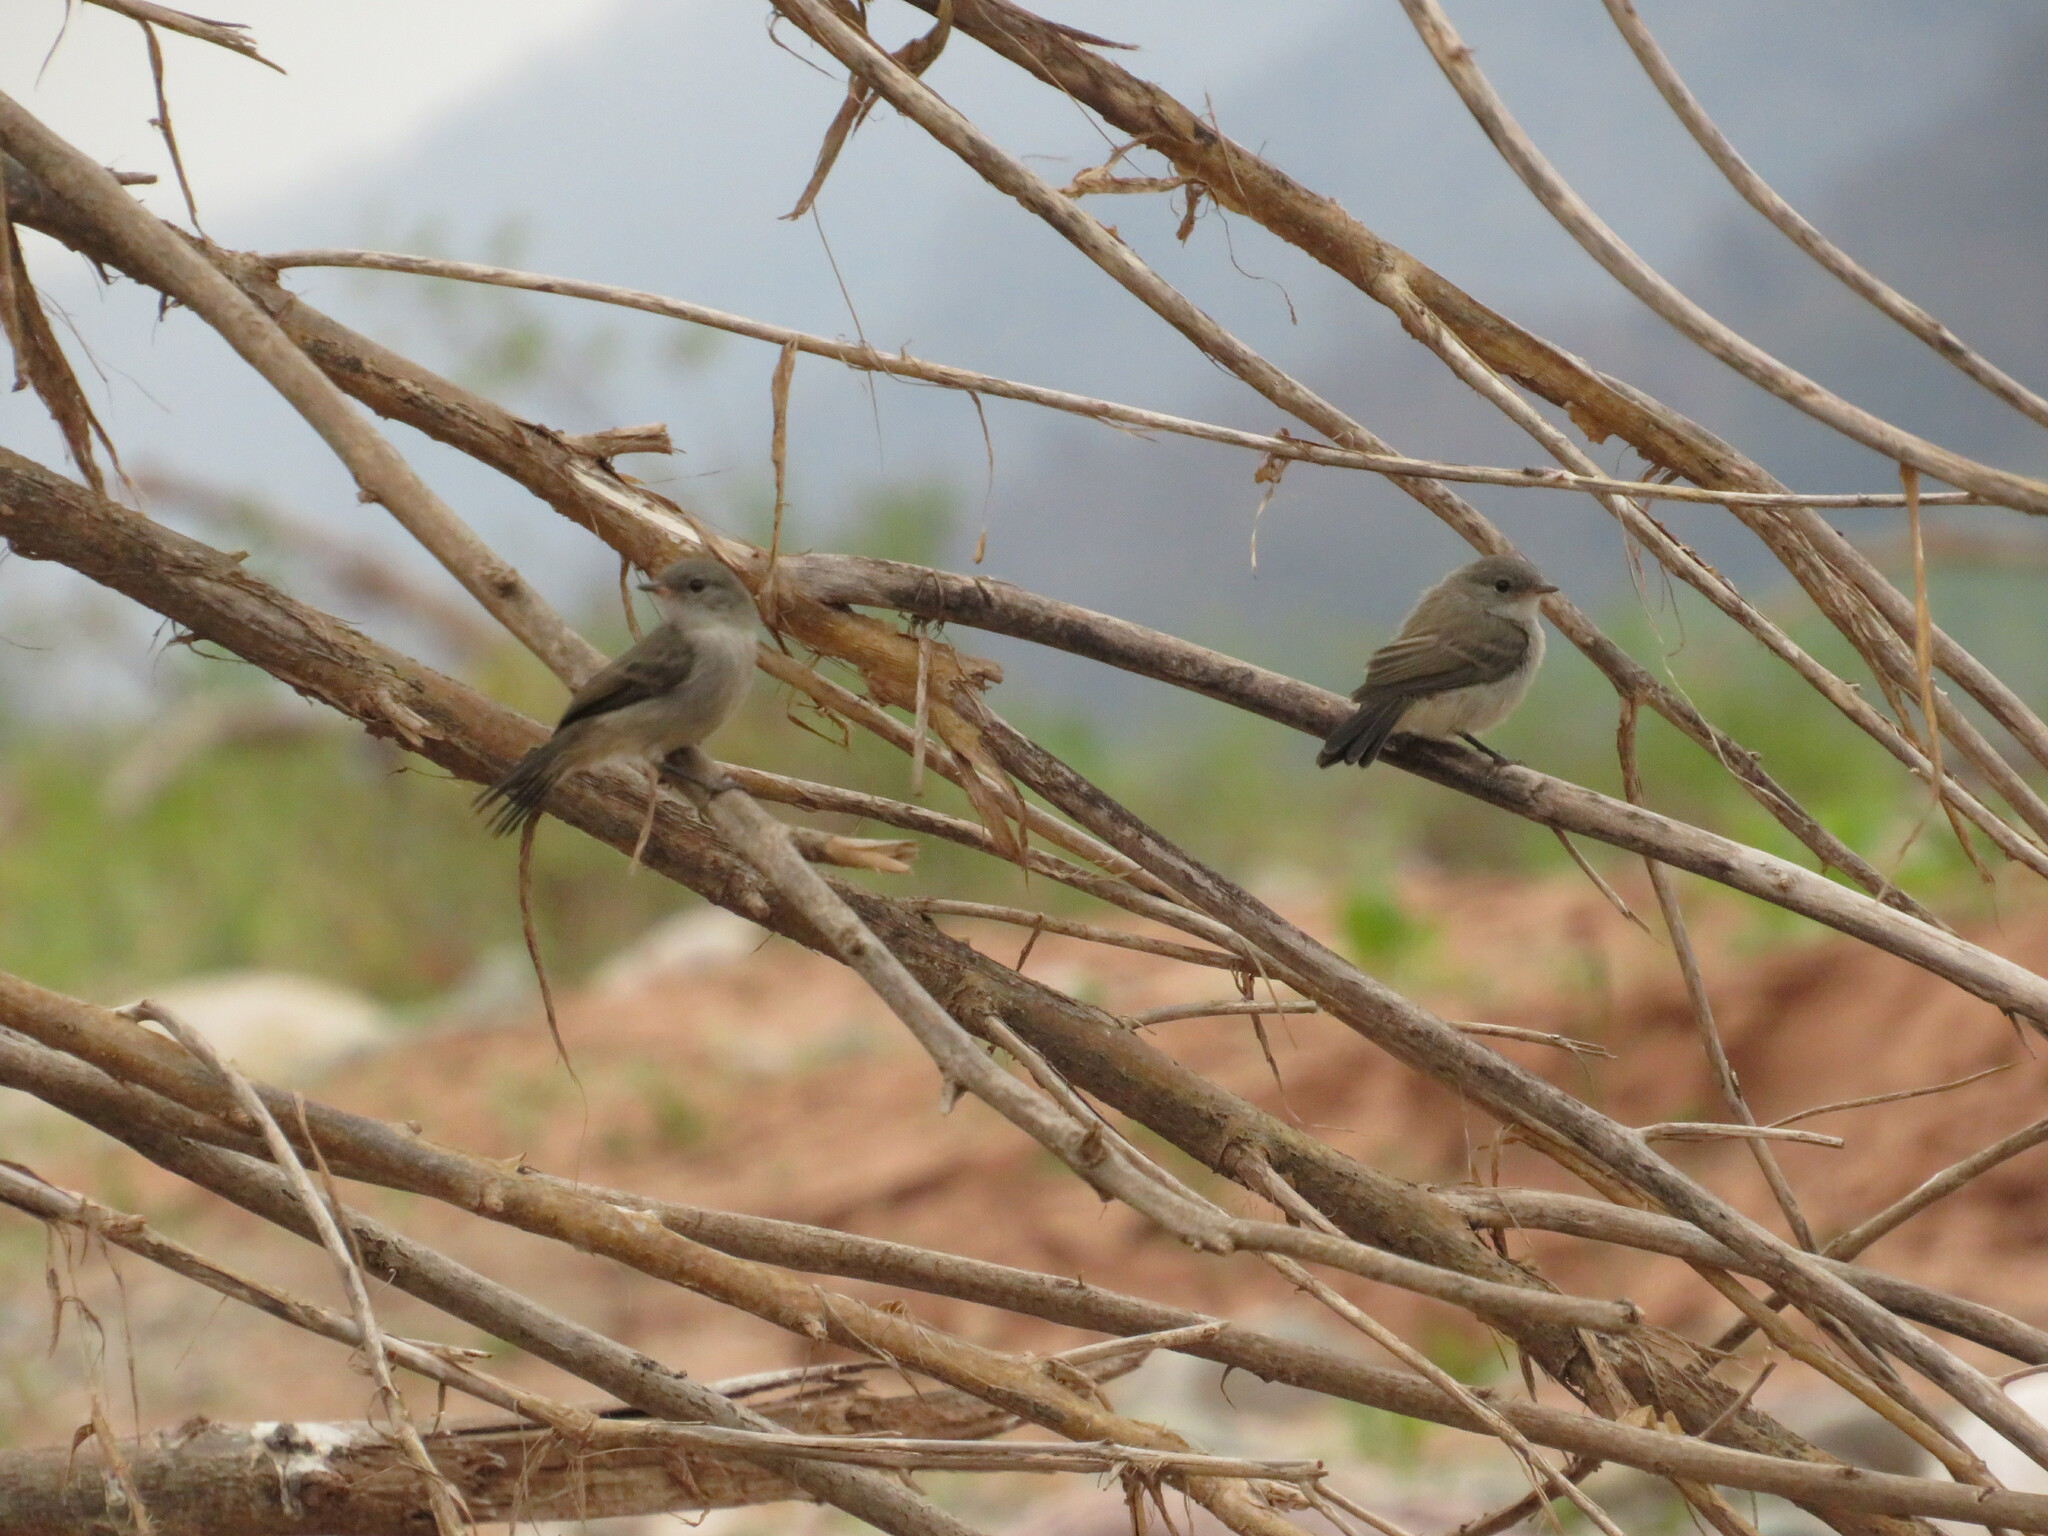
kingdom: Animalia
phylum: Chordata
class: Aves
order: Passeriformes
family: Tyrannidae
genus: Serpophaga
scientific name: Serpophaga nigricans
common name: Sooty tyrannulet
